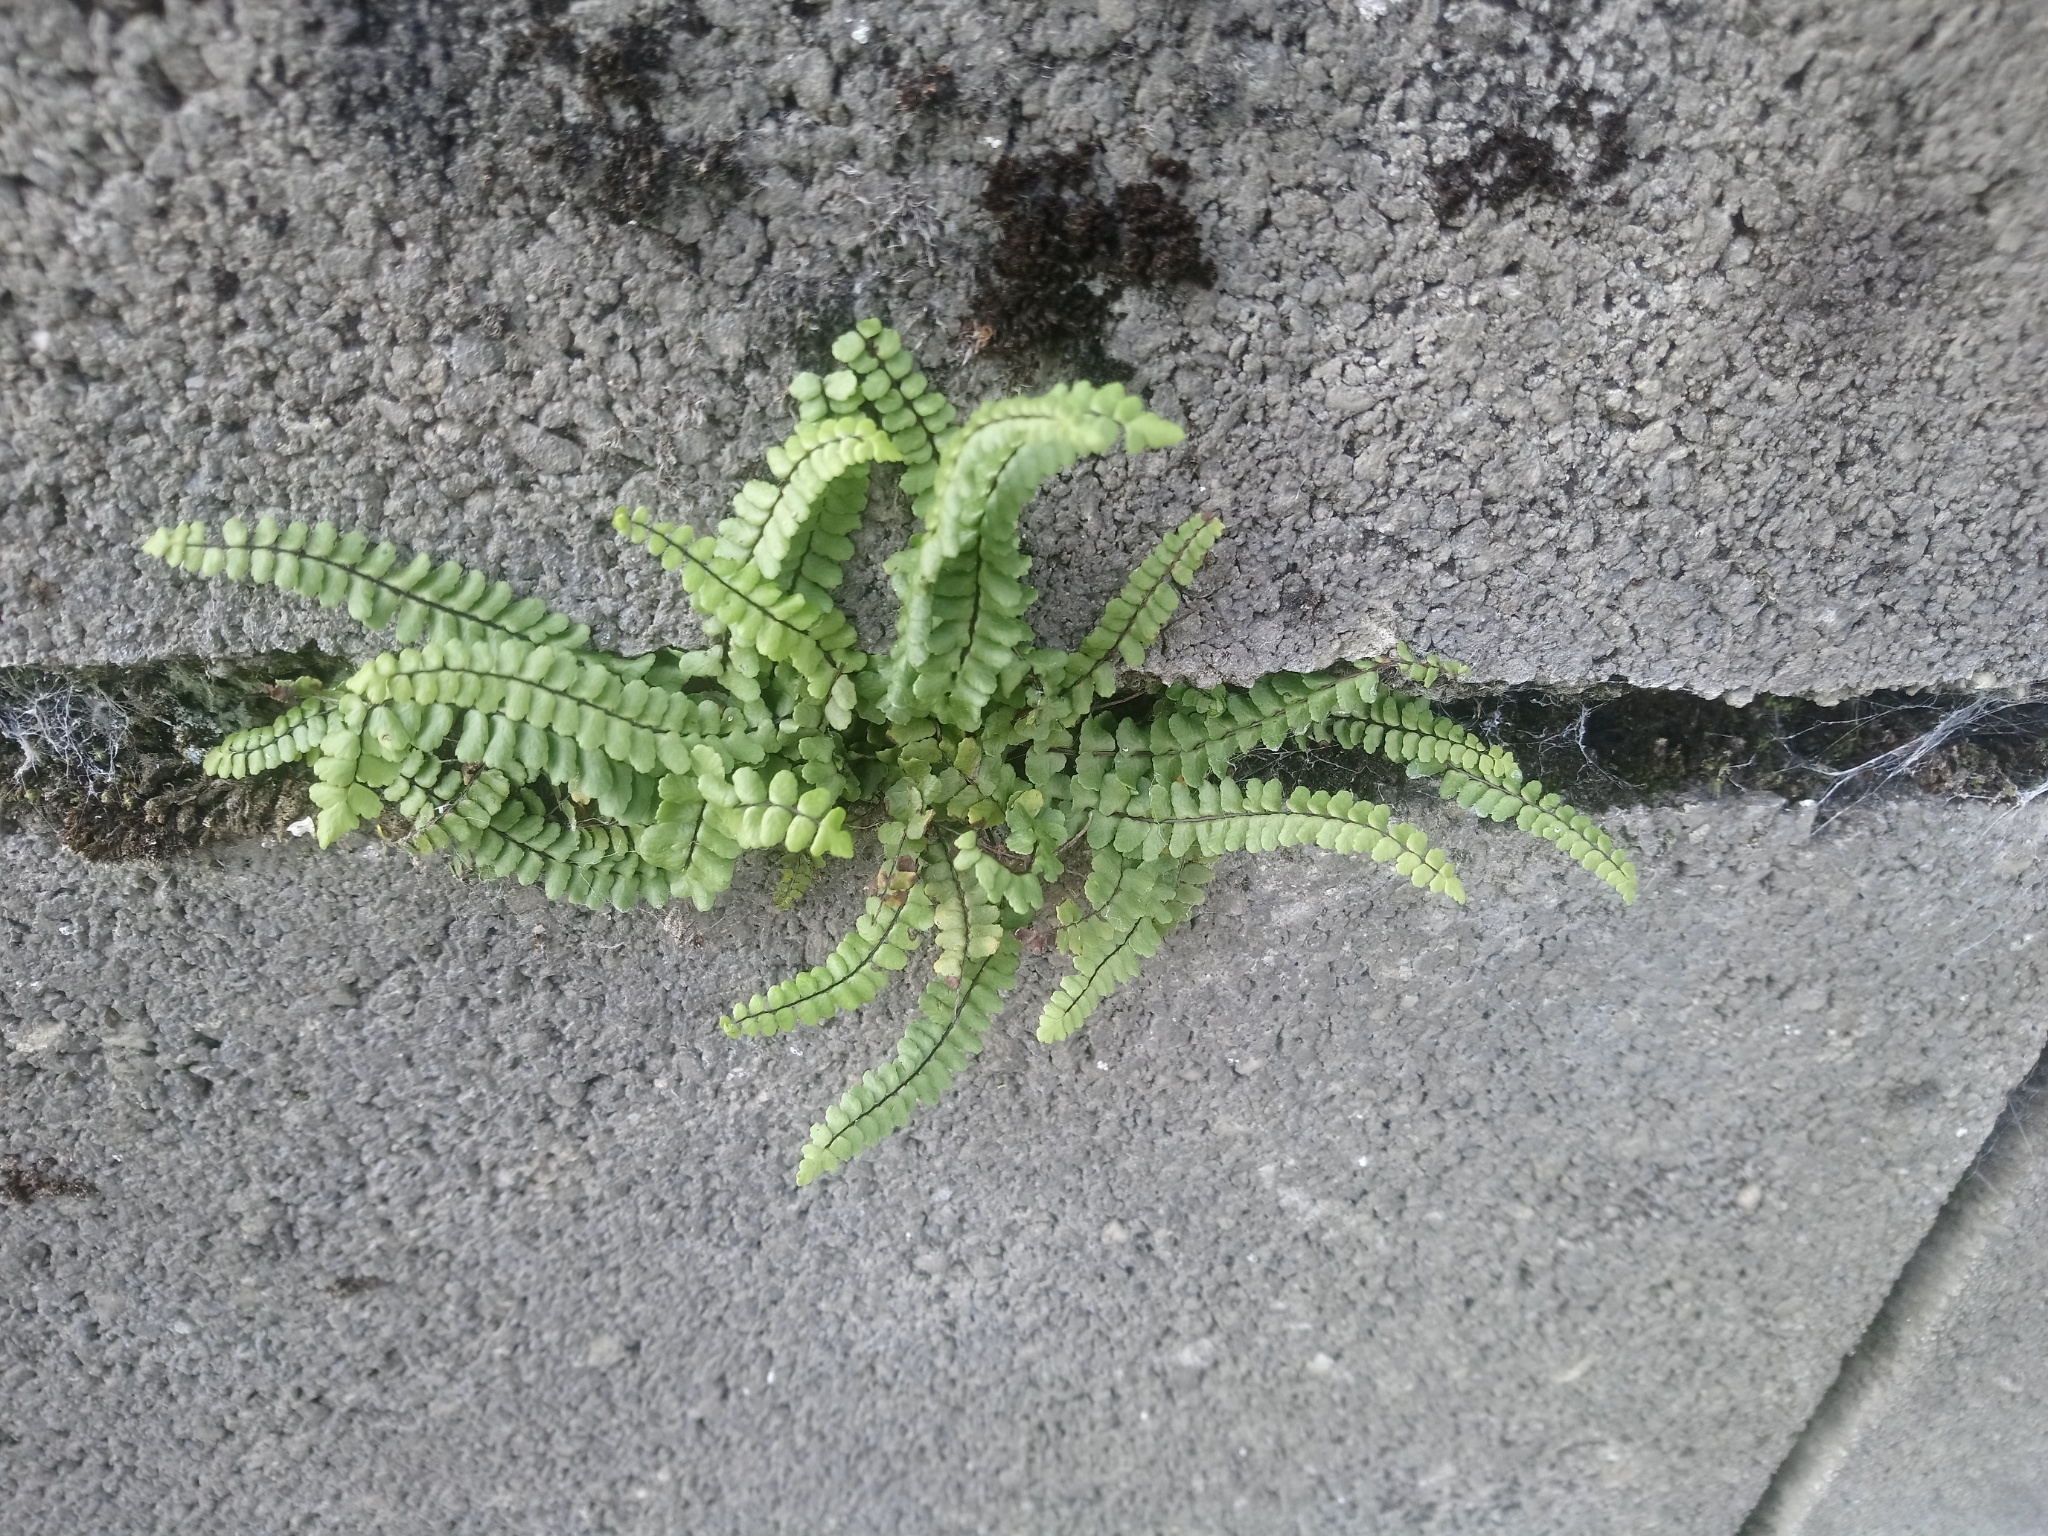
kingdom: Plantae
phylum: Tracheophyta
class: Polypodiopsida
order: Polypodiales
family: Aspleniaceae
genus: Asplenium
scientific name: Asplenium trichomanes
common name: Maidenhair spleenwort
